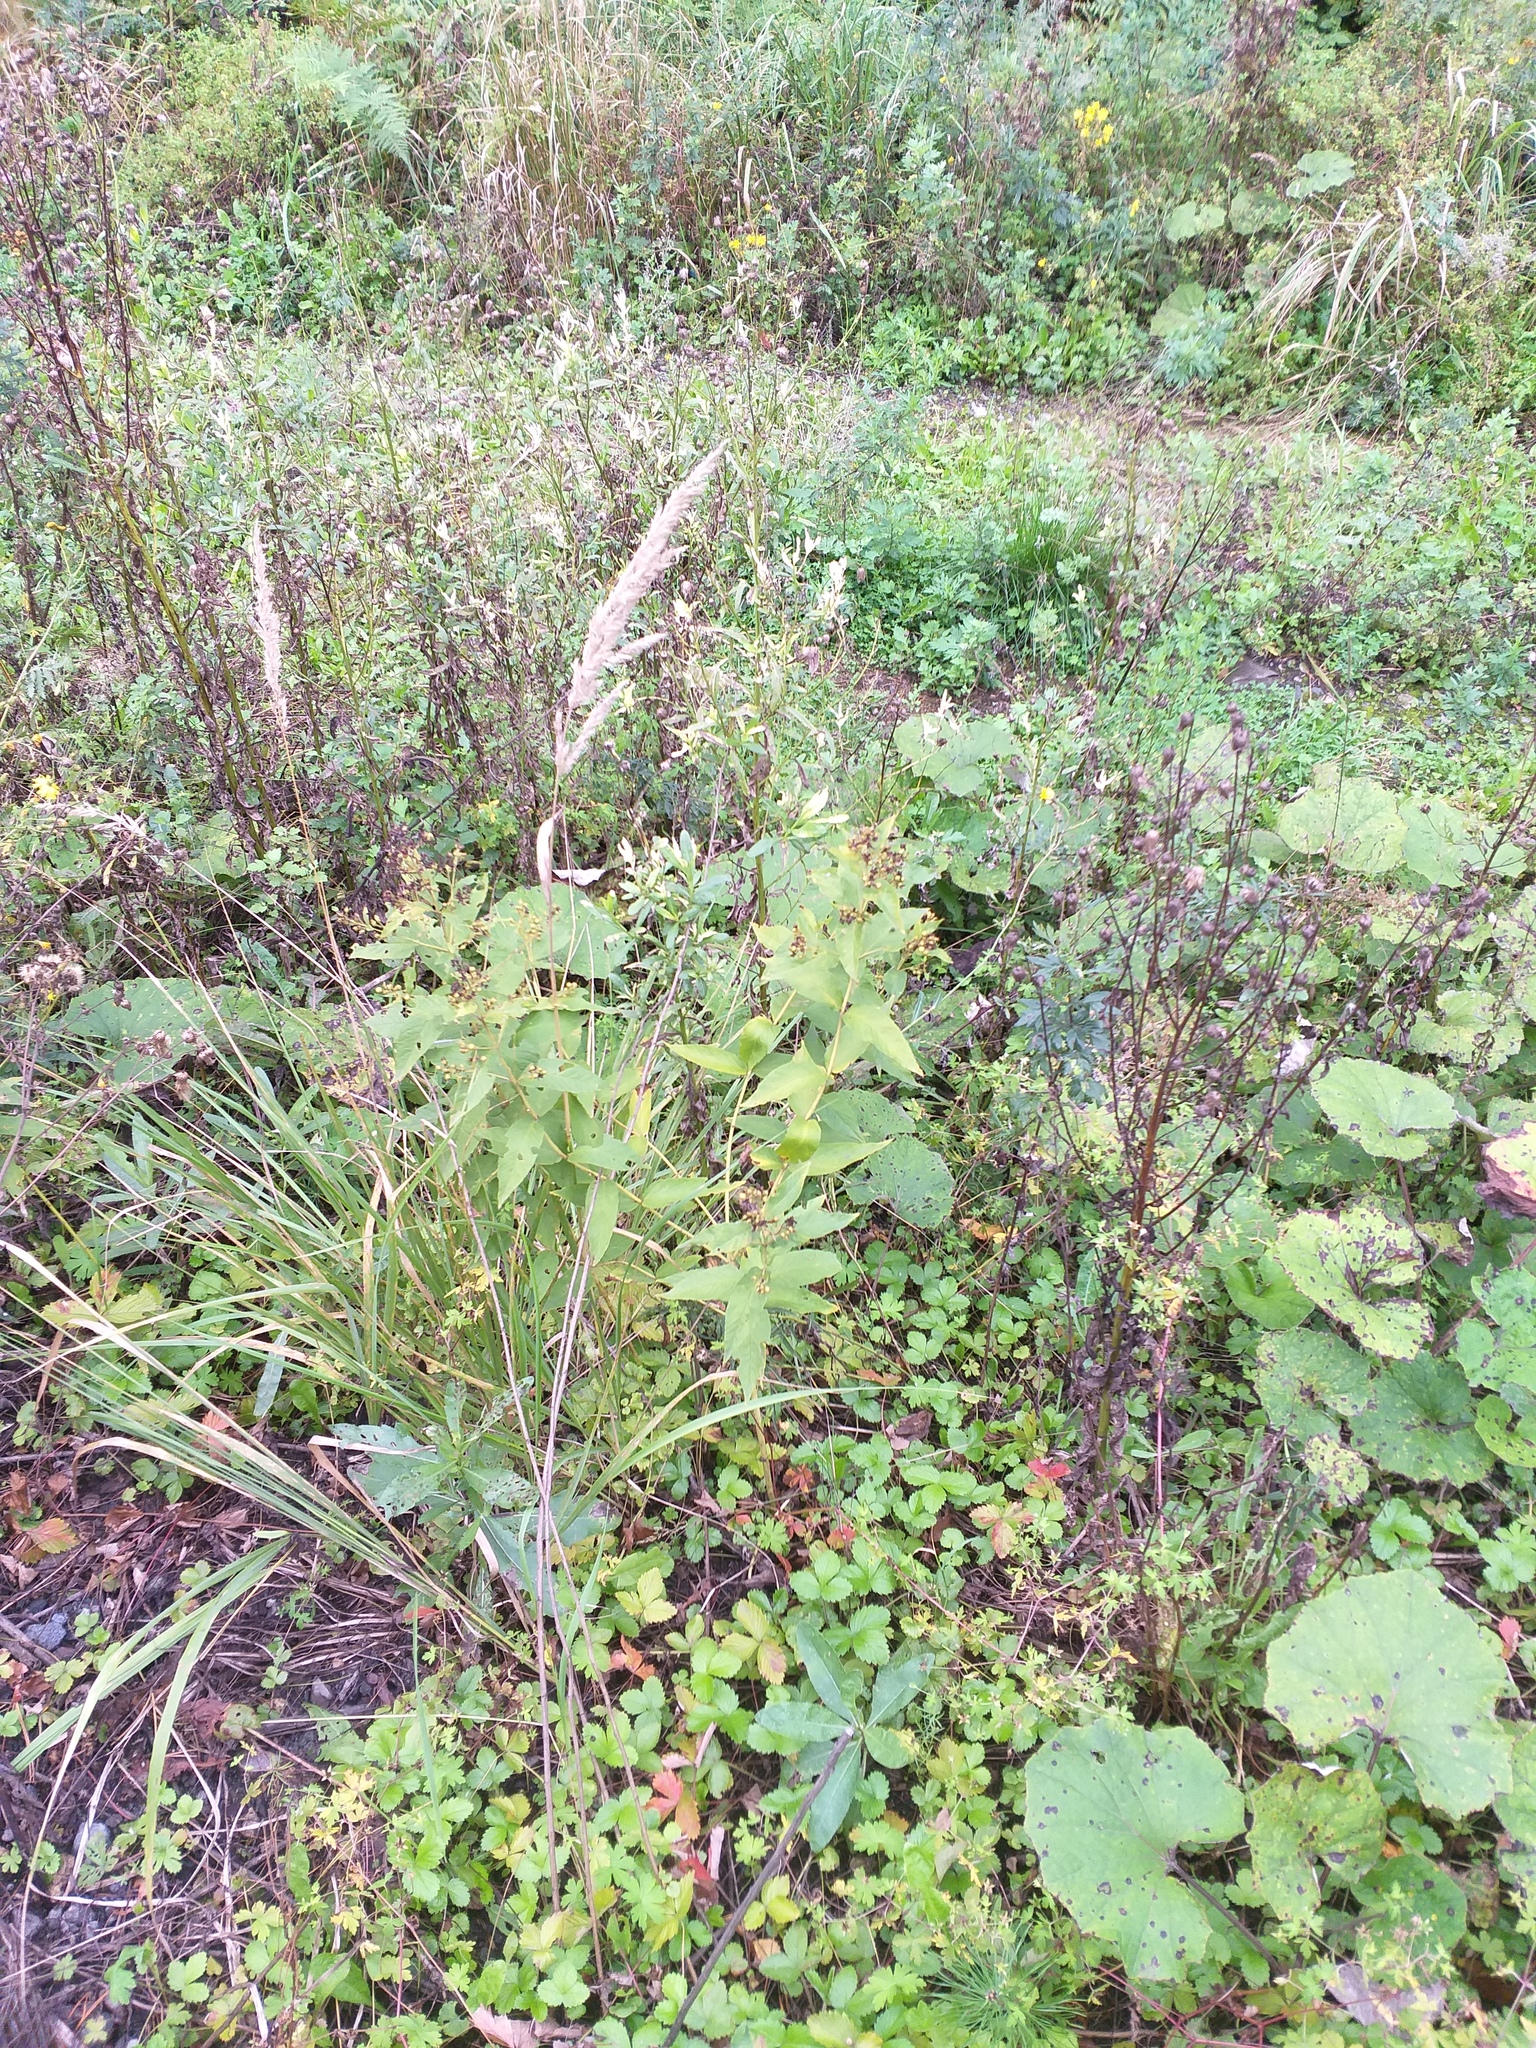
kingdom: Plantae
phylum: Tracheophyta
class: Magnoliopsida
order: Ericales
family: Primulaceae
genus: Lysimachia
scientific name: Lysimachia vulgaris
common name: Yellow loosestrife
